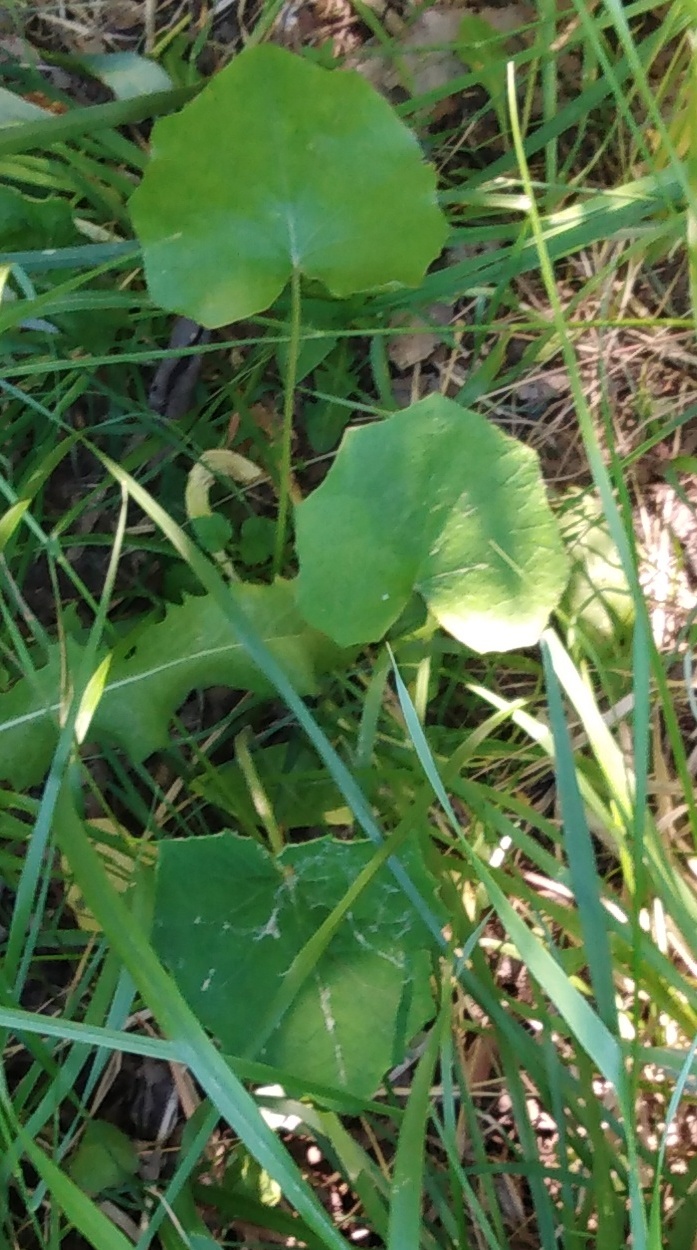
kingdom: Plantae
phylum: Tracheophyta
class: Magnoliopsida
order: Asterales
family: Asteraceae
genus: Tussilago
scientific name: Tussilago farfara
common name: Coltsfoot
